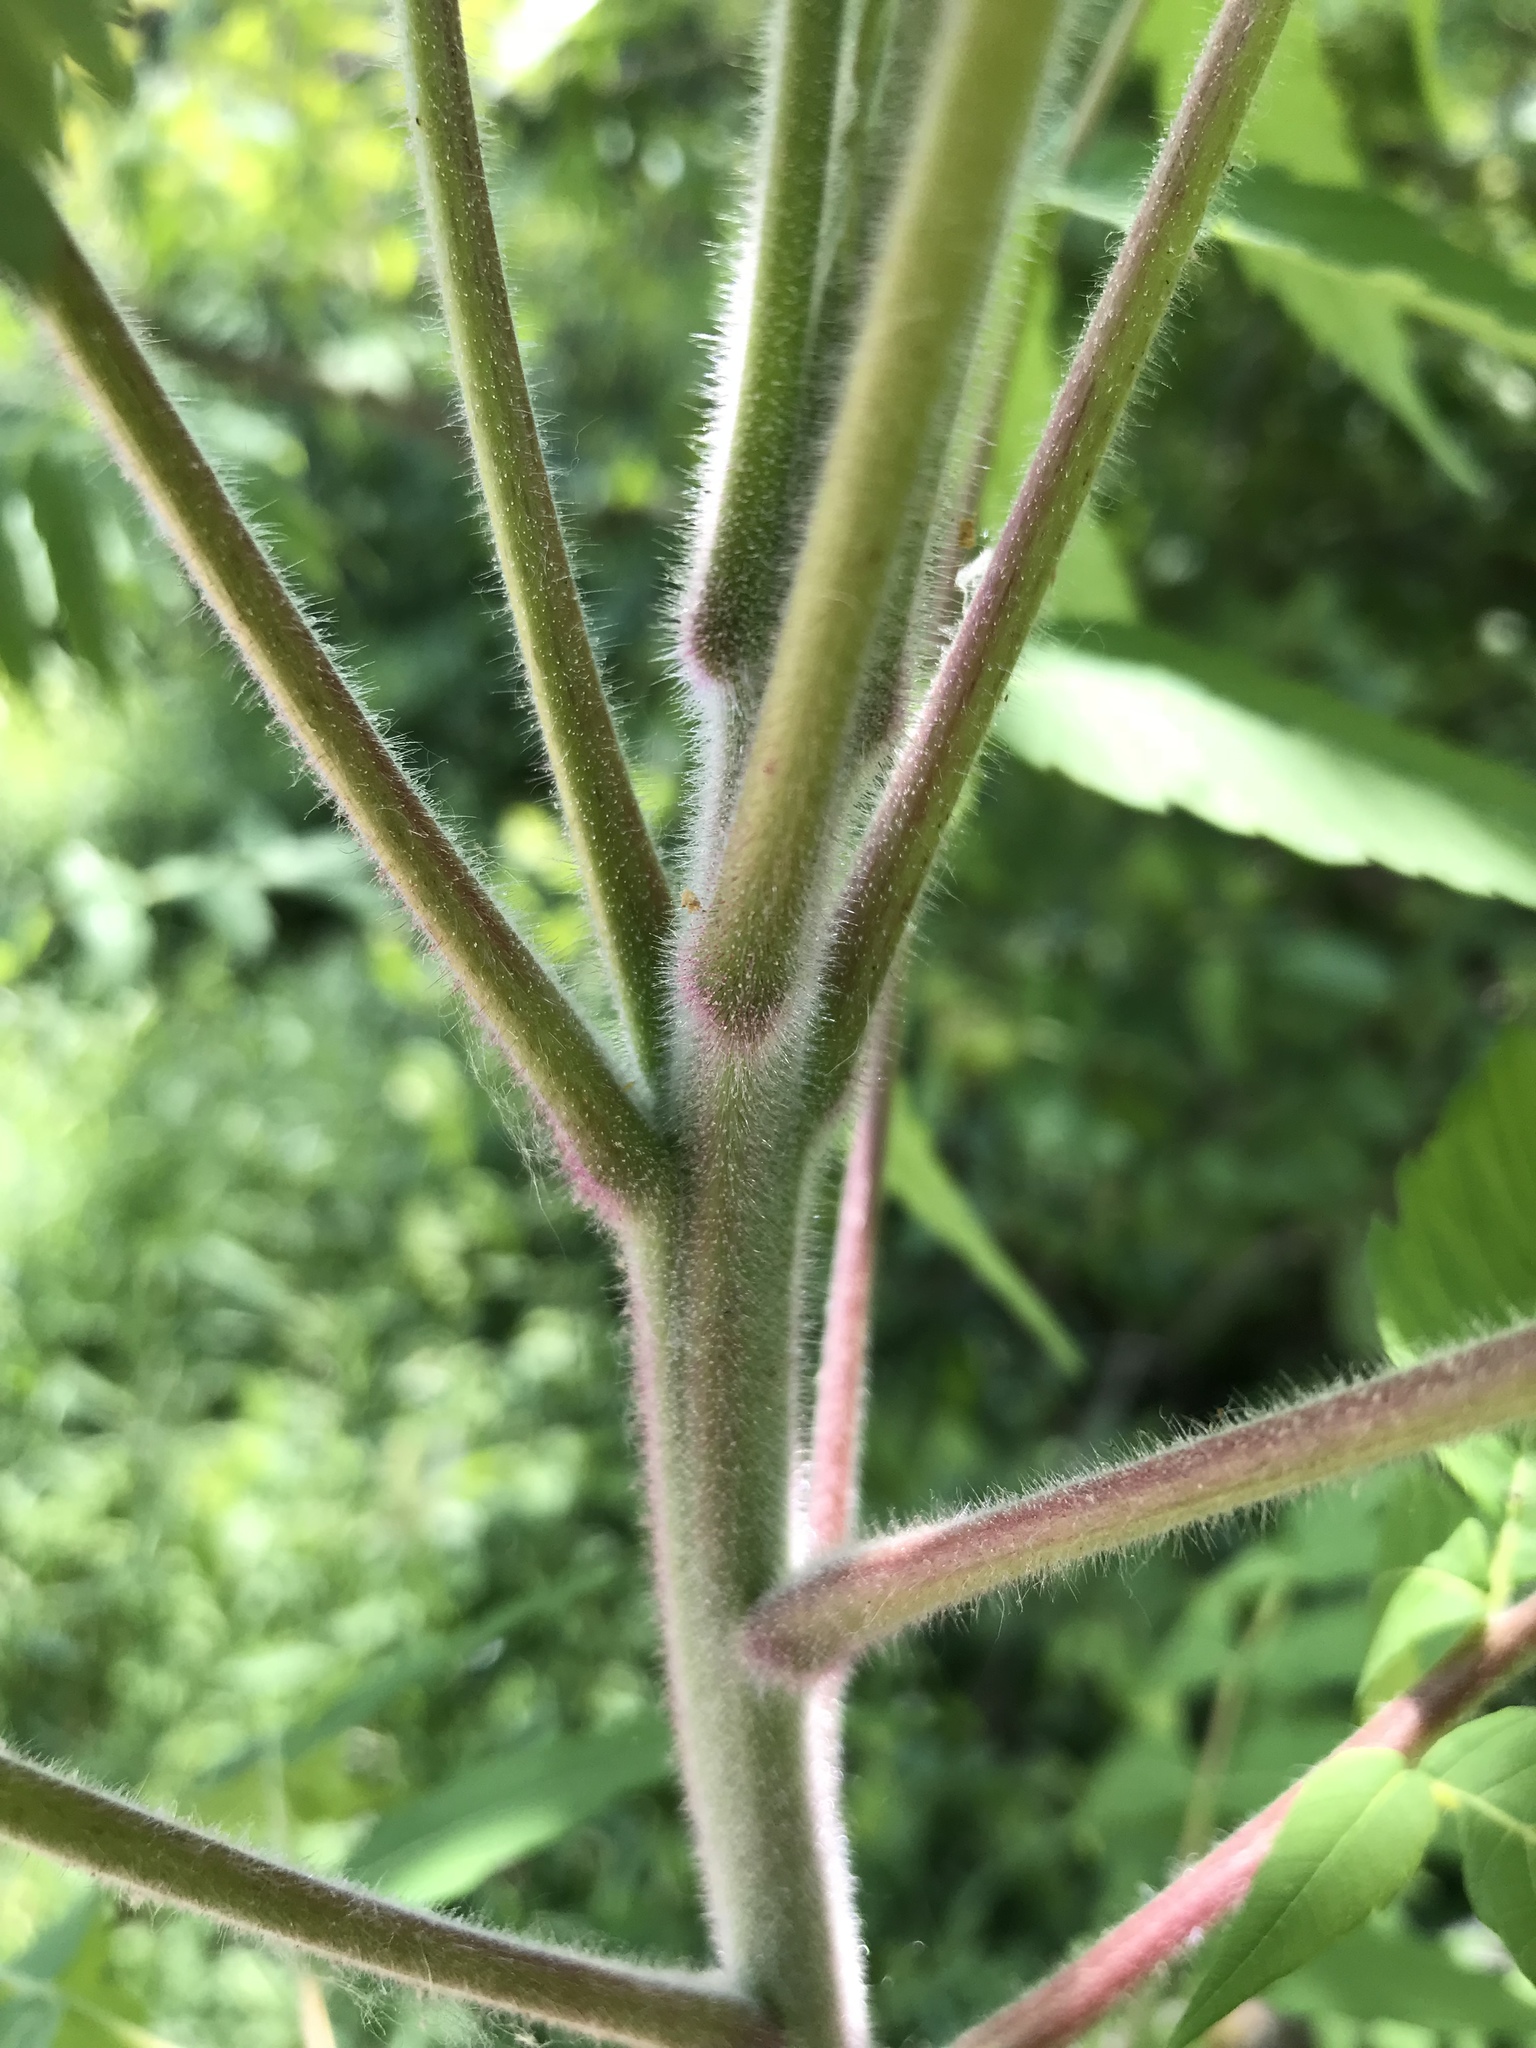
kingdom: Plantae
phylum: Tracheophyta
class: Magnoliopsida
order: Sapindales
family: Anacardiaceae
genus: Rhus
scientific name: Rhus typhina
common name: Staghorn sumac
